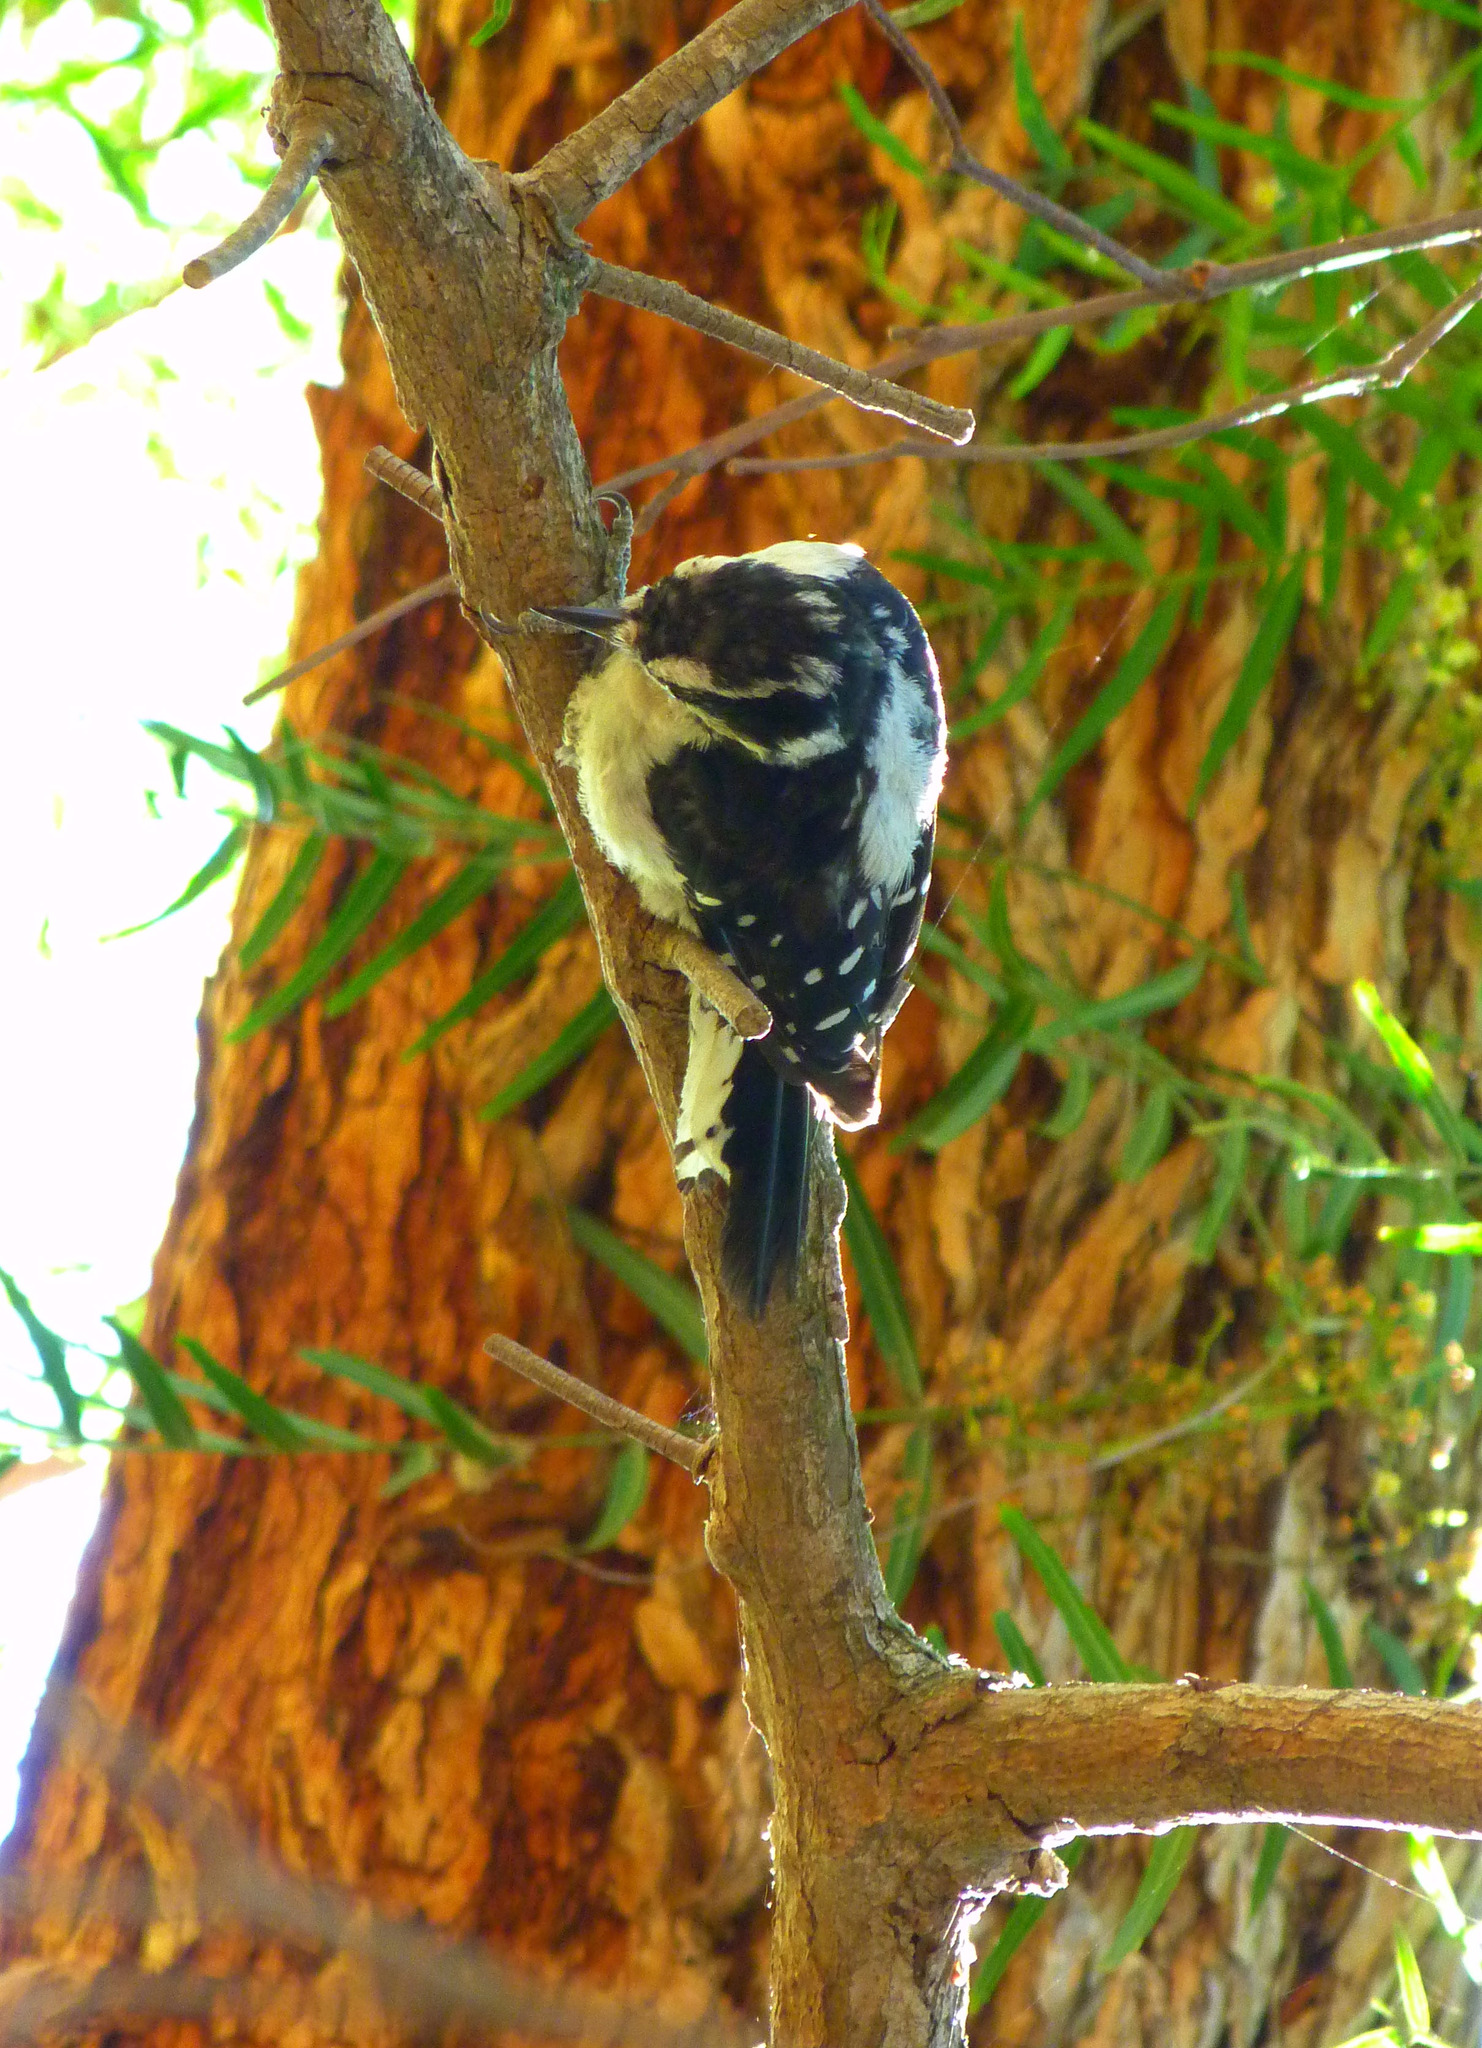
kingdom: Animalia
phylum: Chordata
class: Aves
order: Piciformes
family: Picidae
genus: Dryobates
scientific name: Dryobates pubescens
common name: Downy woodpecker
